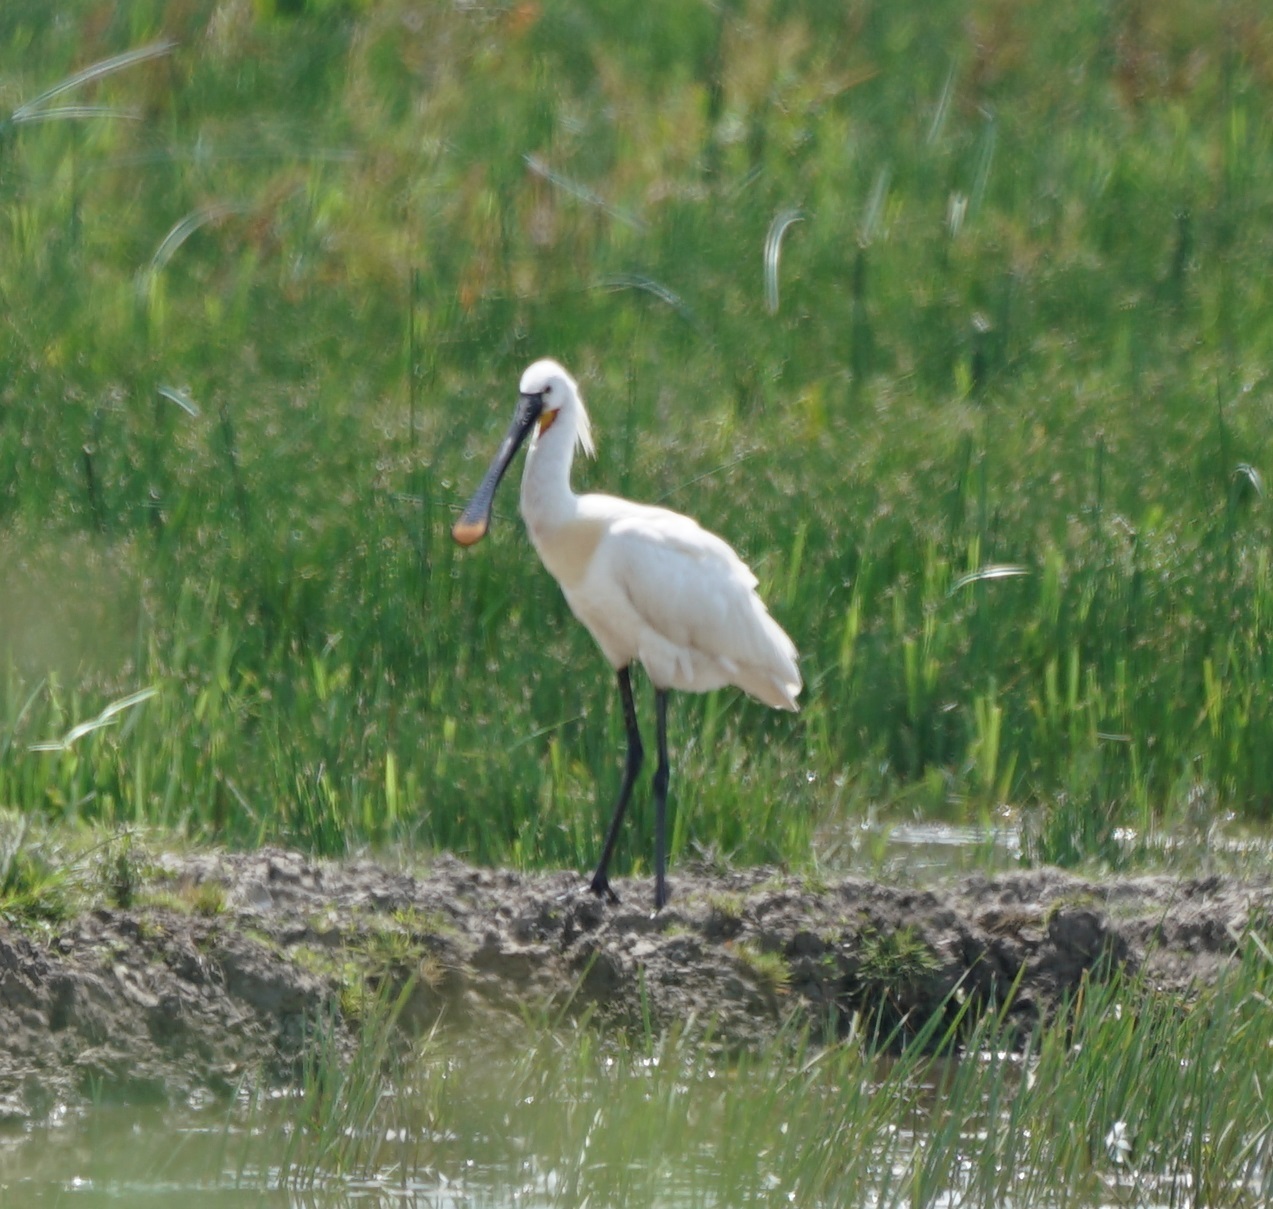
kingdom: Animalia
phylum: Chordata
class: Aves
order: Pelecaniformes
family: Threskiornithidae
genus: Platalea
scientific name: Platalea leucorodia
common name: Eurasian spoonbill
